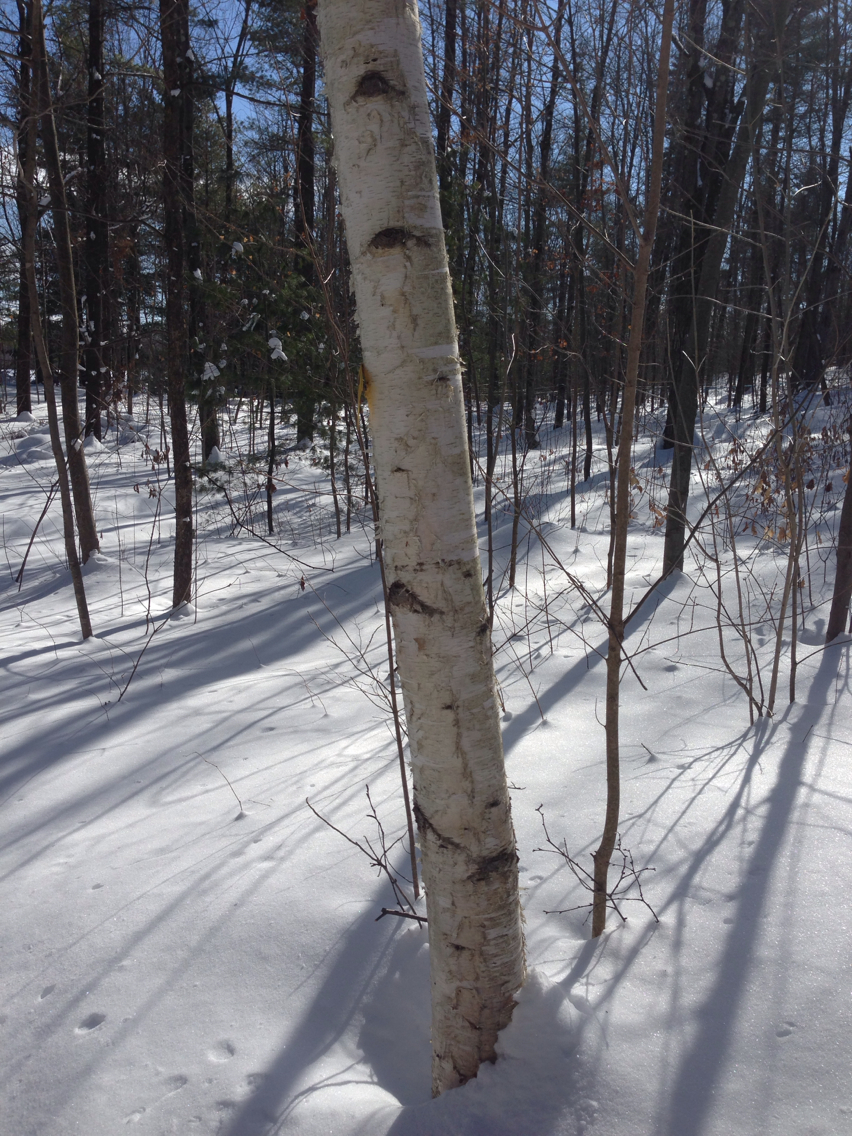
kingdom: Plantae
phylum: Tracheophyta
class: Magnoliopsida
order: Fagales
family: Betulaceae
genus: Betula
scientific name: Betula papyrifera
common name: Paper birch
